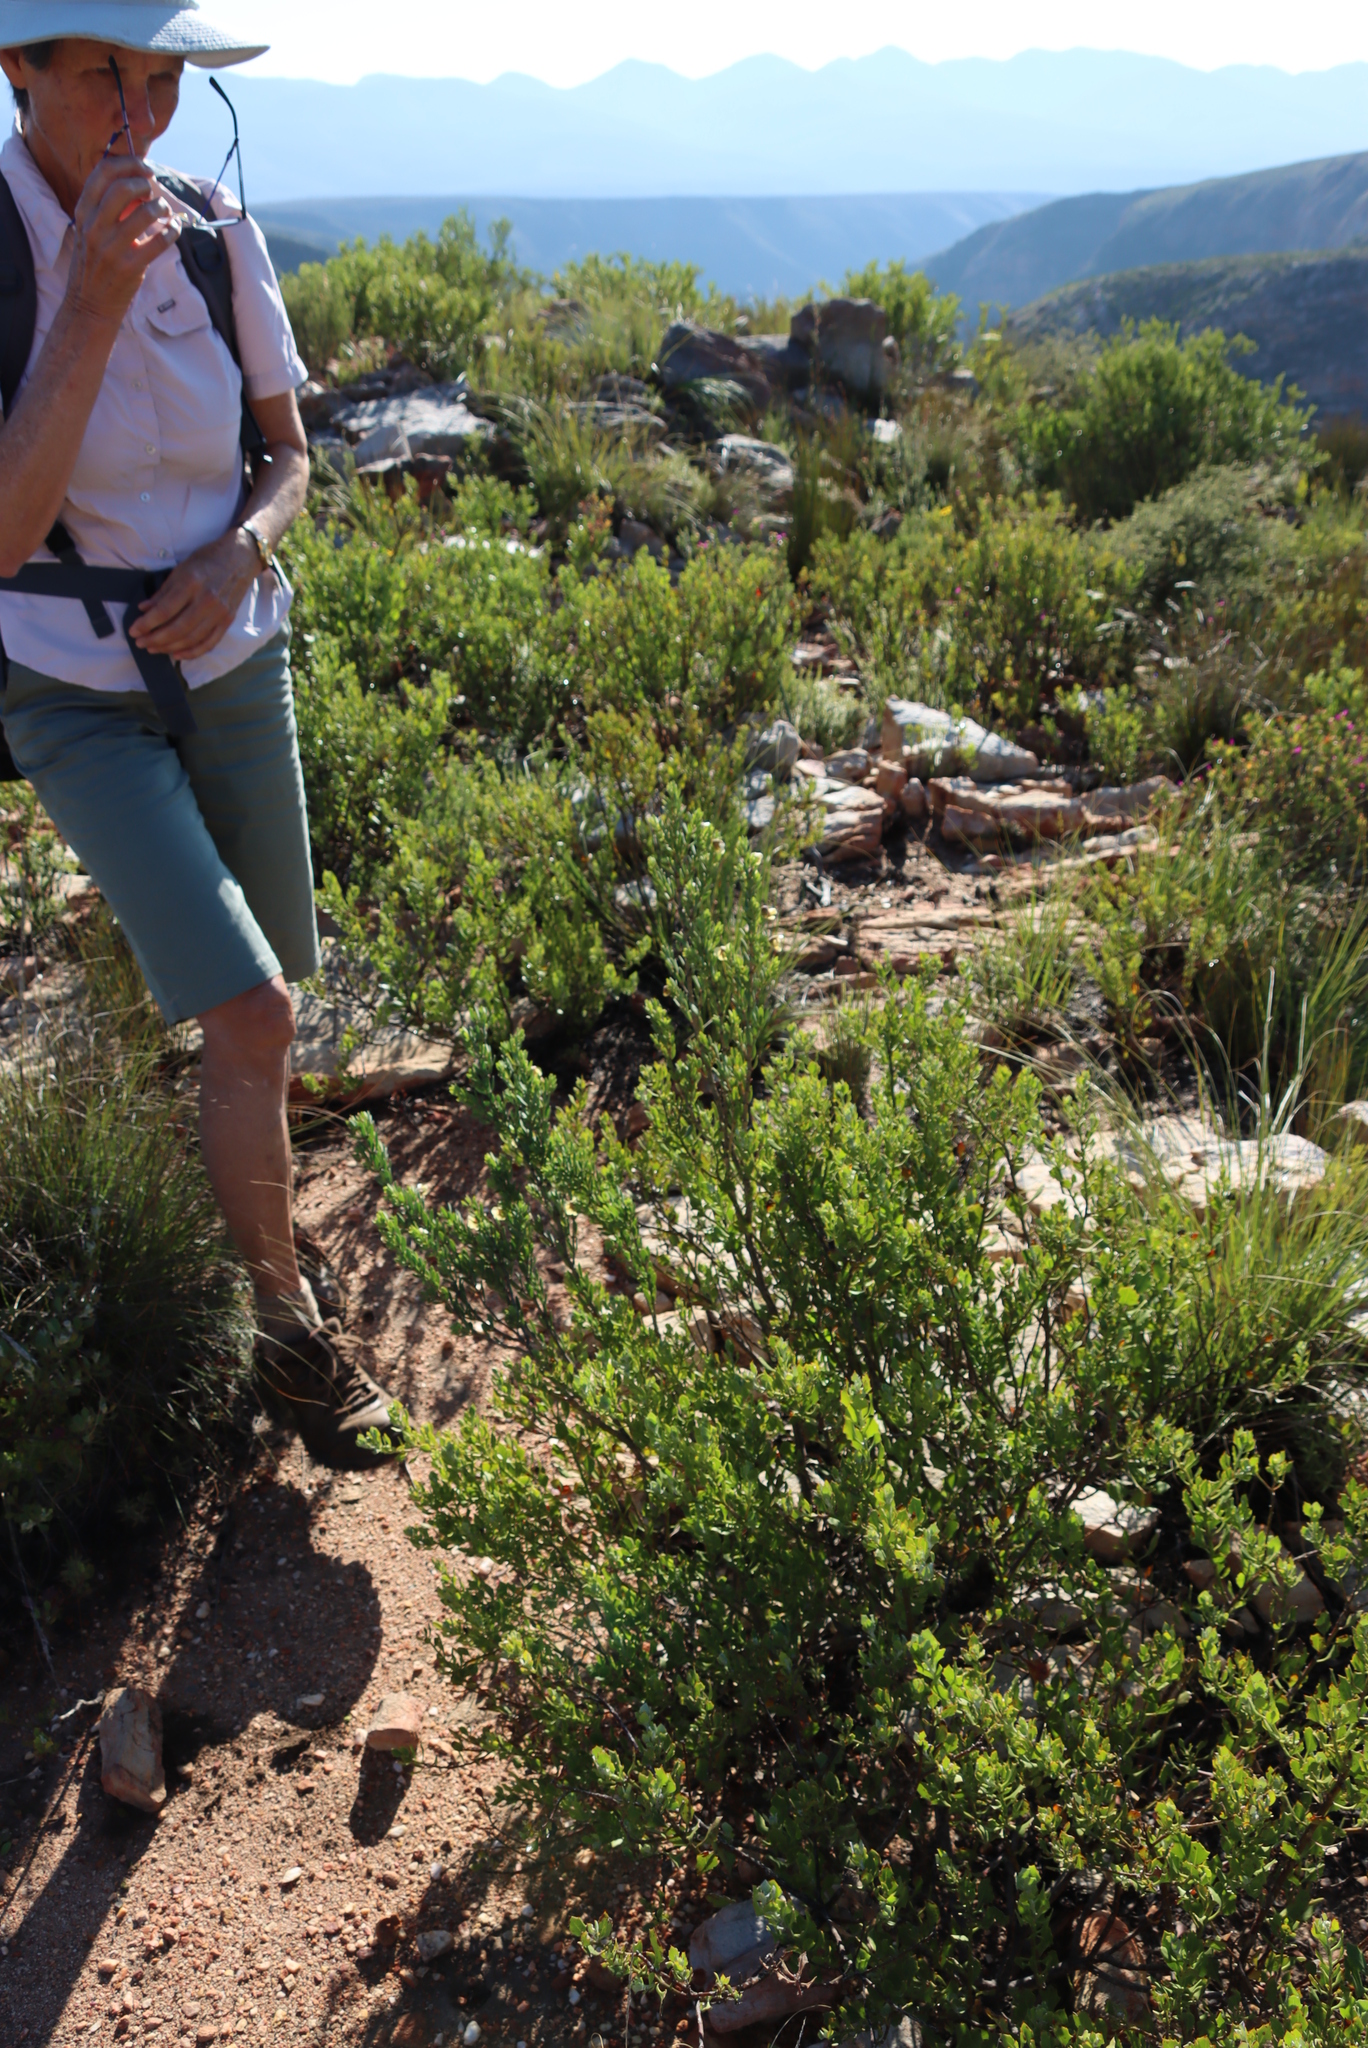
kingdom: Plantae
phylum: Tracheophyta
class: Magnoliopsida
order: Zygophyllales
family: Zygophyllaceae
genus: Roepera
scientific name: Roepera fulva
